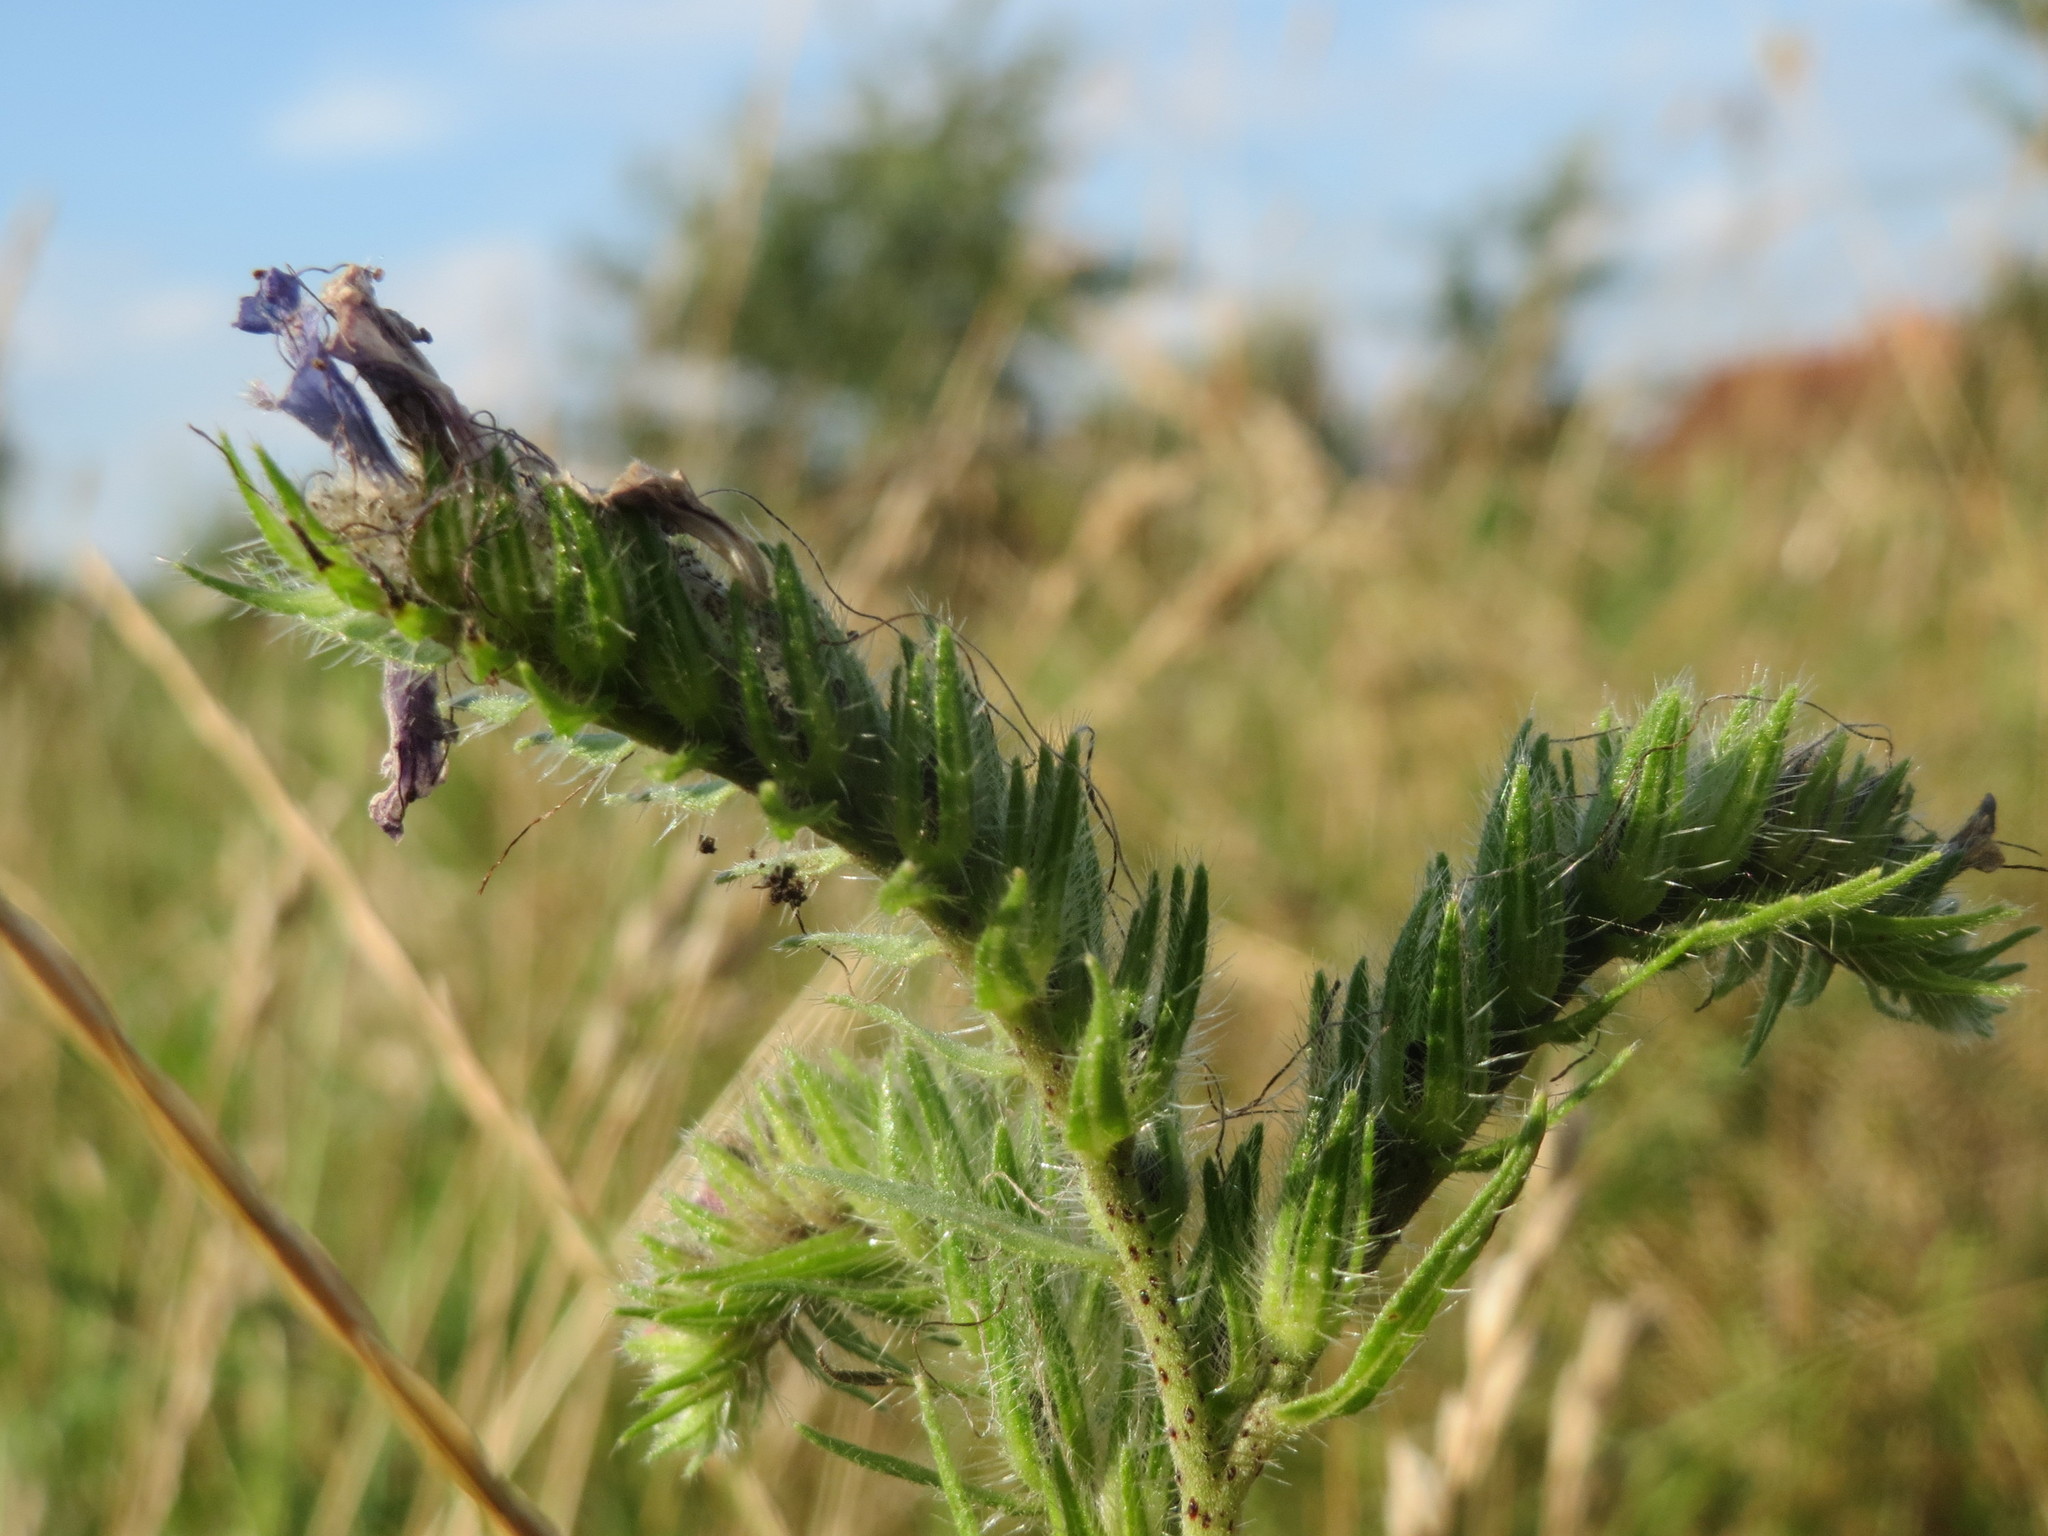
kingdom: Plantae
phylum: Tracheophyta
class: Magnoliopsida
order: Boraginales
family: Boraginaceae
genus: Echium
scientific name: Echium vulgare
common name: Common viper's bugloss
